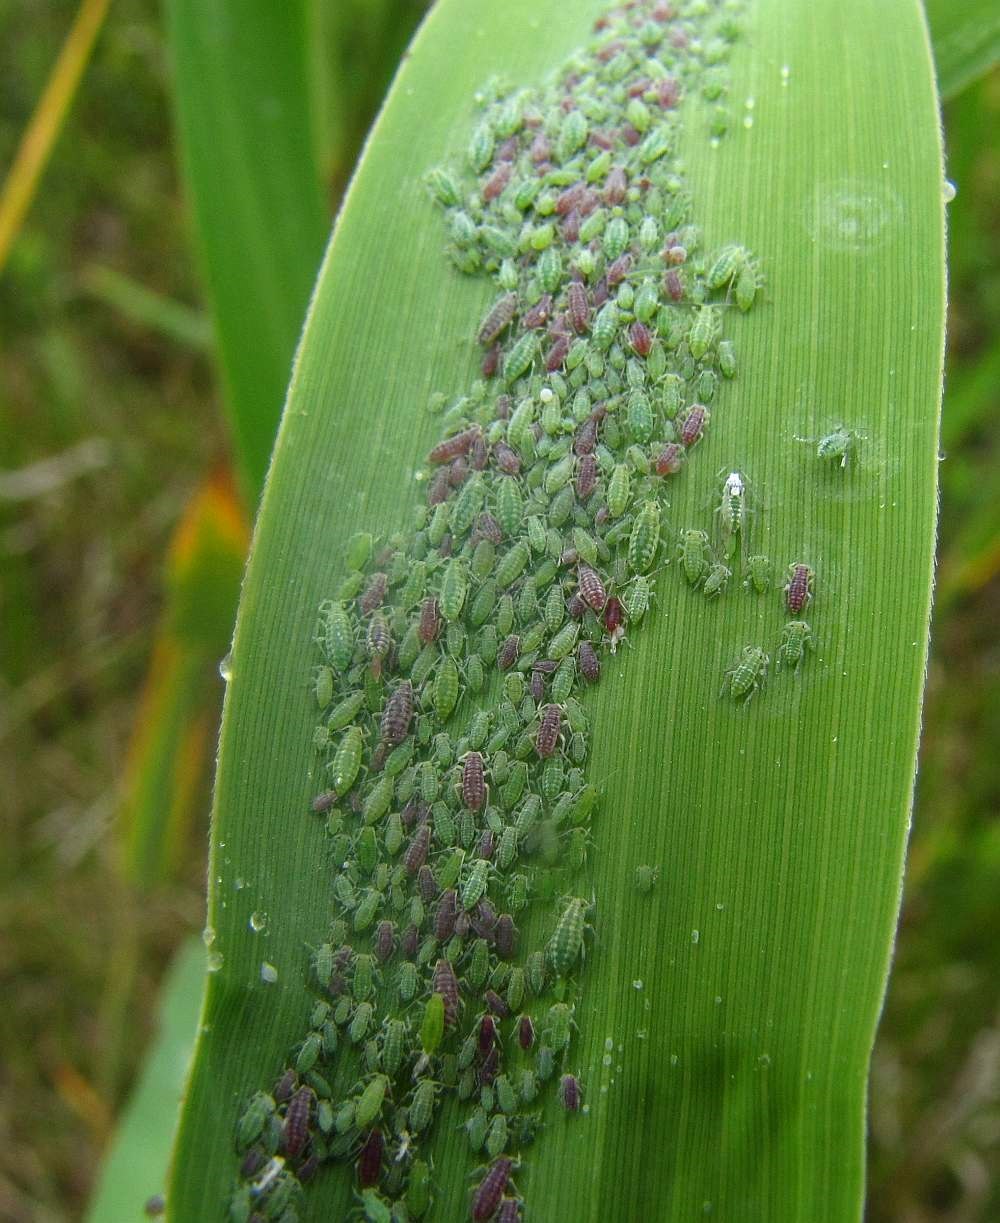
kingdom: Animalia
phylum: Arthropoda
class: Insecta
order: Hemiptera
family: Aphididae
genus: Hyalopterus
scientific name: Hyalopterus pruni
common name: Mealy plum aphid
